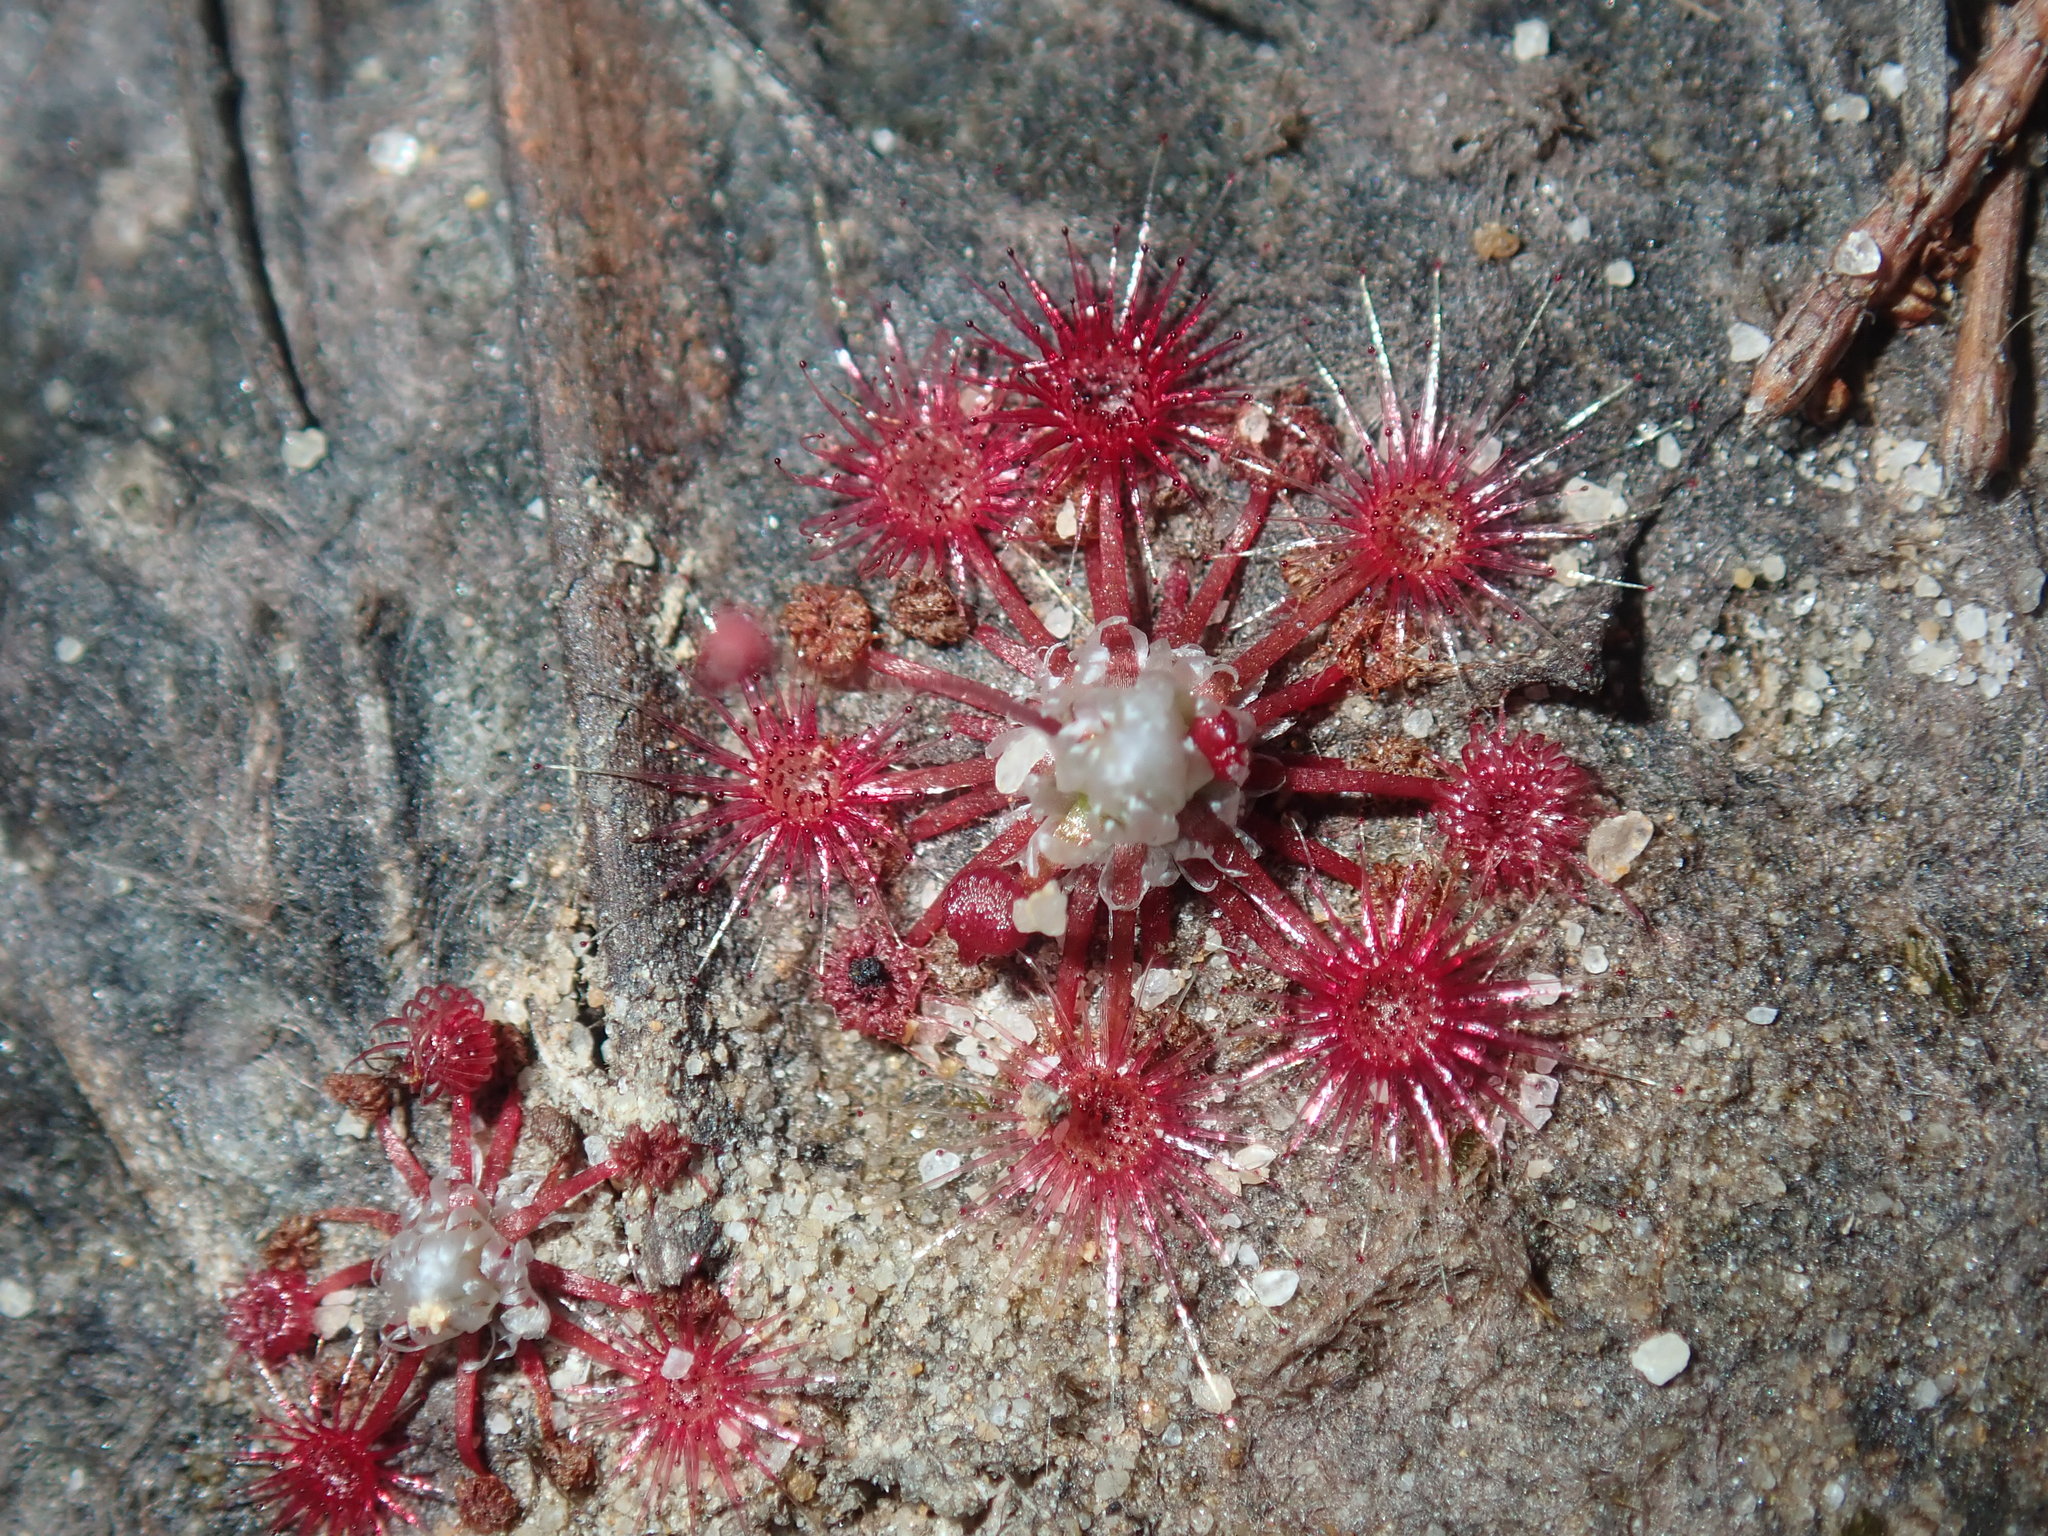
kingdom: Plantae
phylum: Tracheophyta
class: Magnoliopsida
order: Caryophyllales
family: Droseraceae
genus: Drosera
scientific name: Drosera pygmaea
